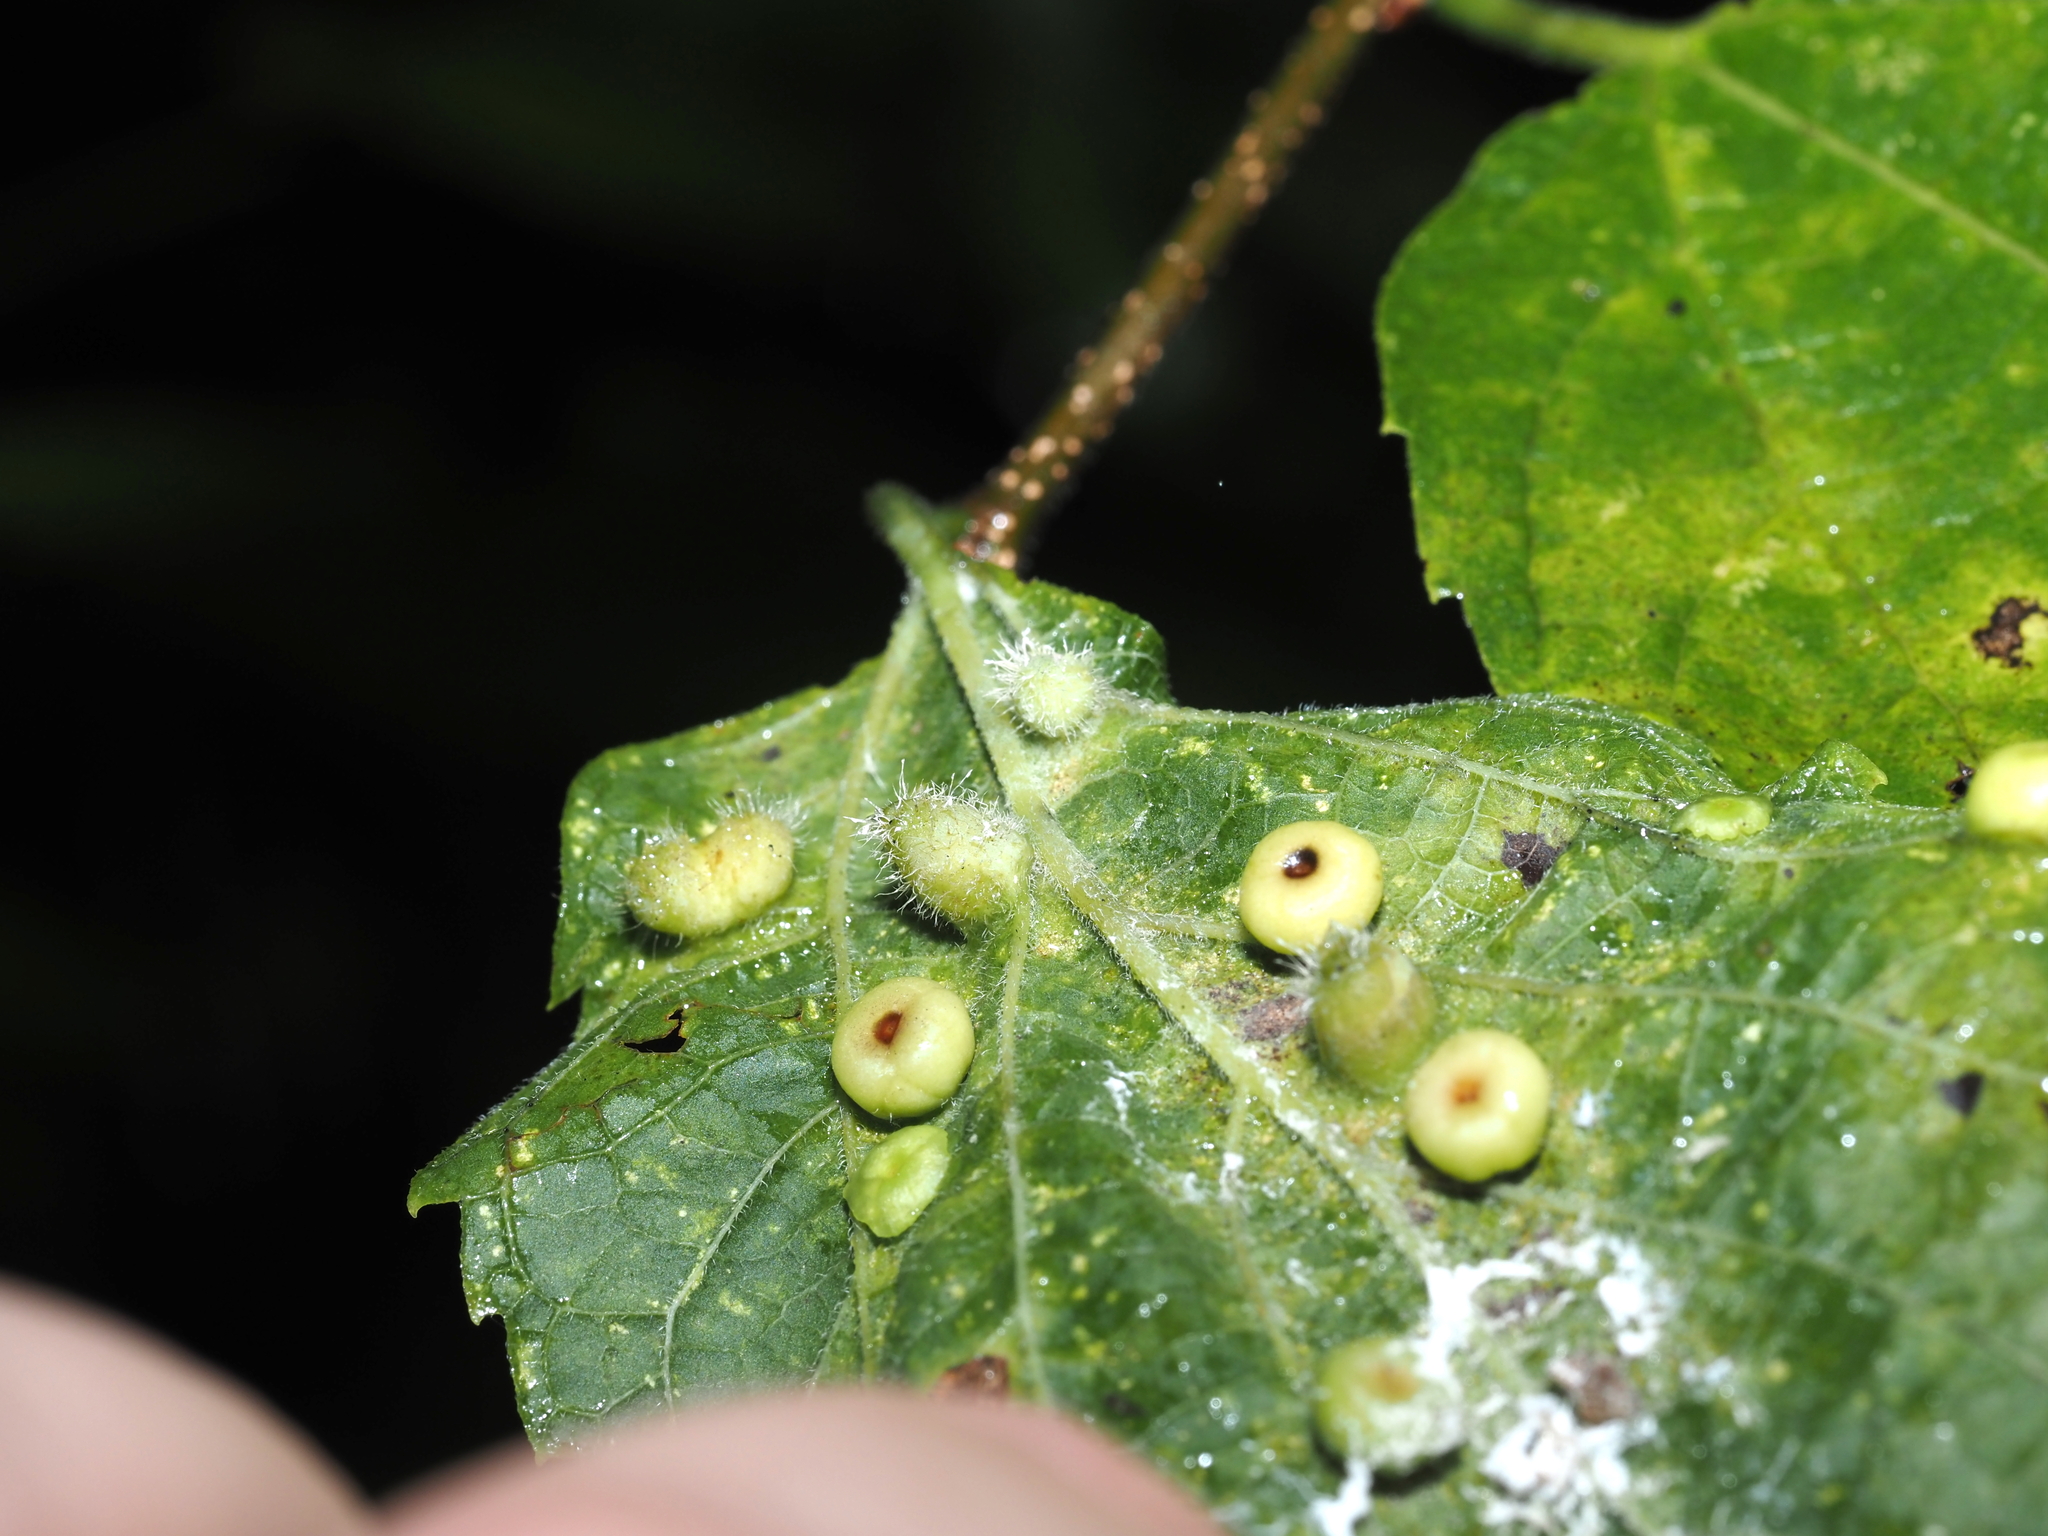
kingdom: Animalia
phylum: Arthropoda
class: Insecta
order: Hemiptera
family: Aphalaridae
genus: Pachypsylla
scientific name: Pachypsylla celtidismamma
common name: Hackberry nipplegall psyllid
